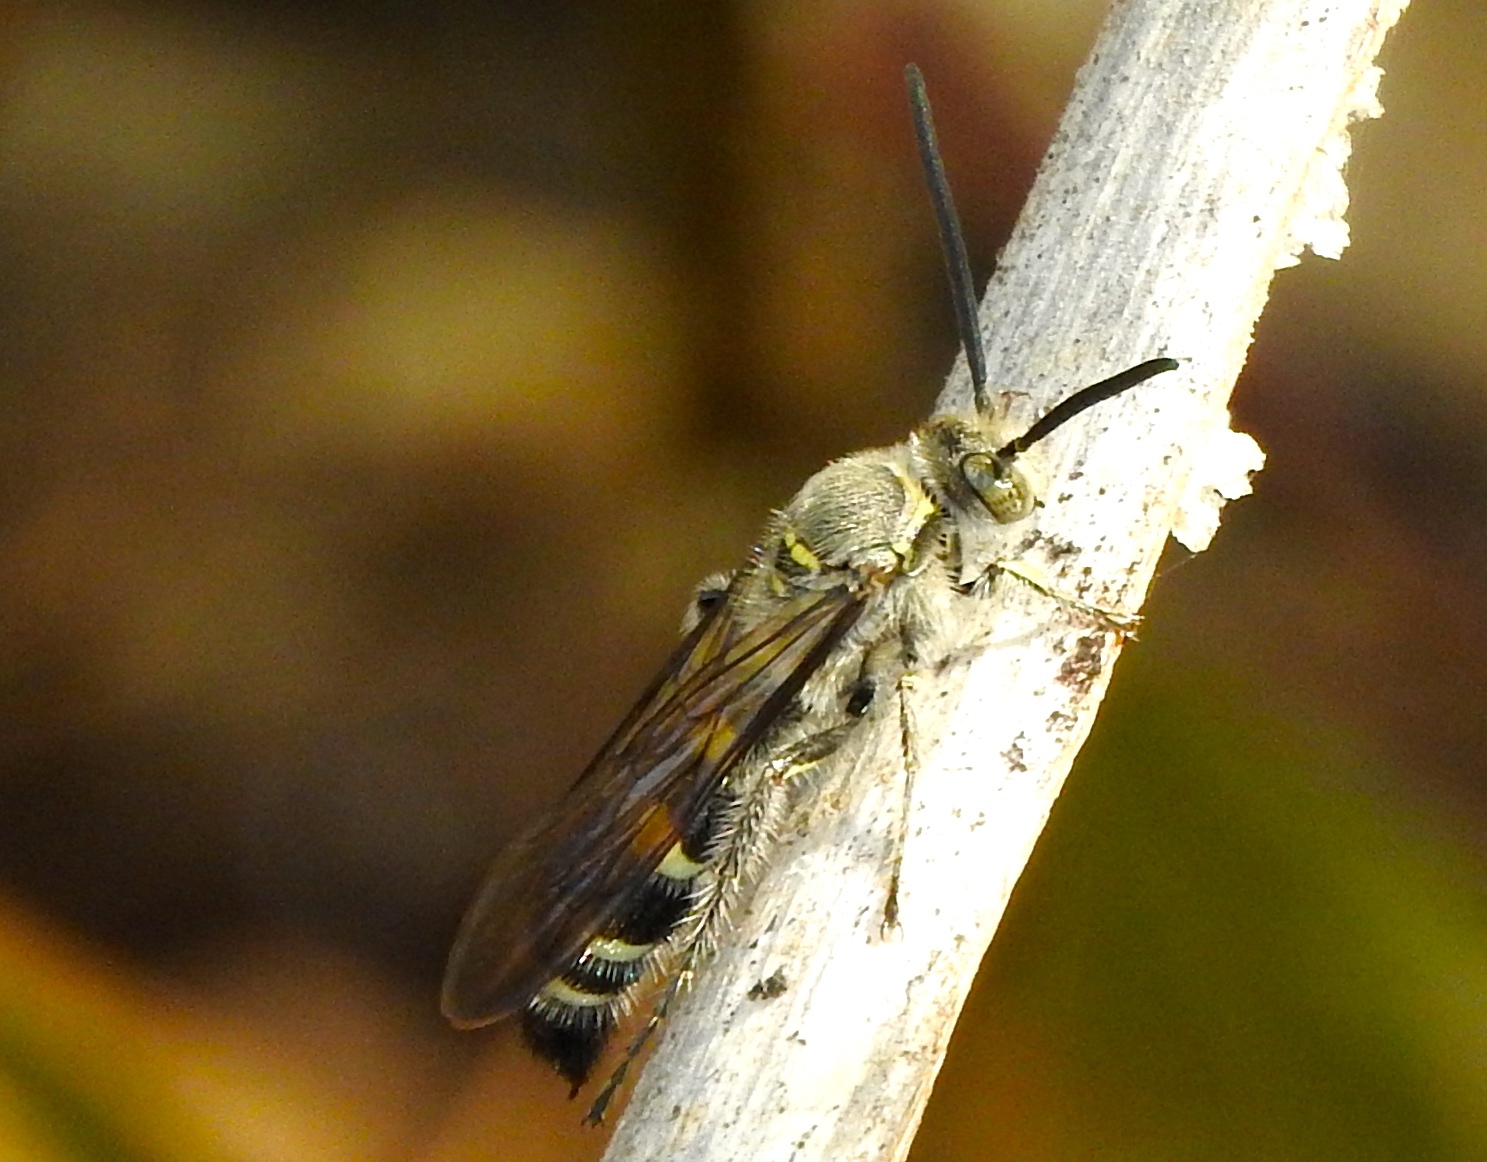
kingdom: Animalia
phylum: Arthropoda
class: Insecta
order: Hymenoptera
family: Scoliidae
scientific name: Scoliidae
